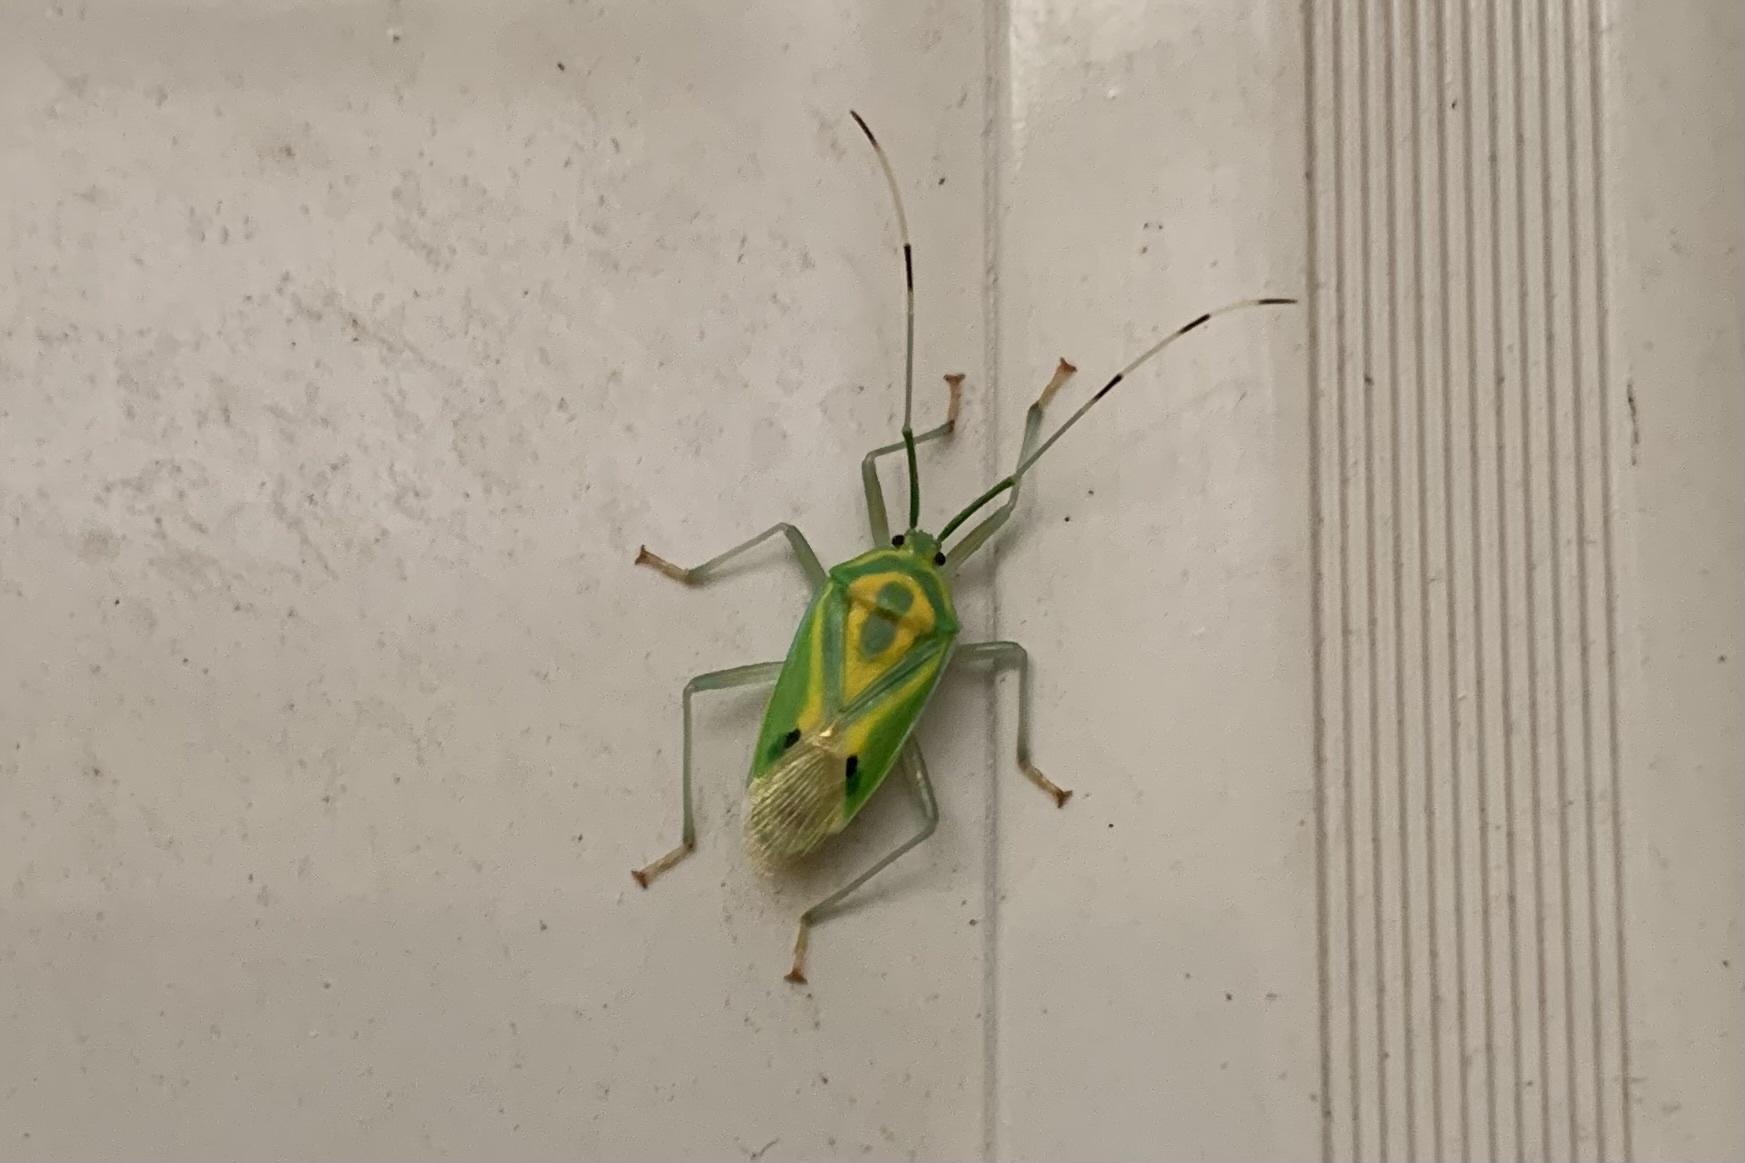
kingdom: Animalia
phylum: Arthropoda
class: Insecta
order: Hemiptera
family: Urostylididae
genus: Urolabida
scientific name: Urolabida
